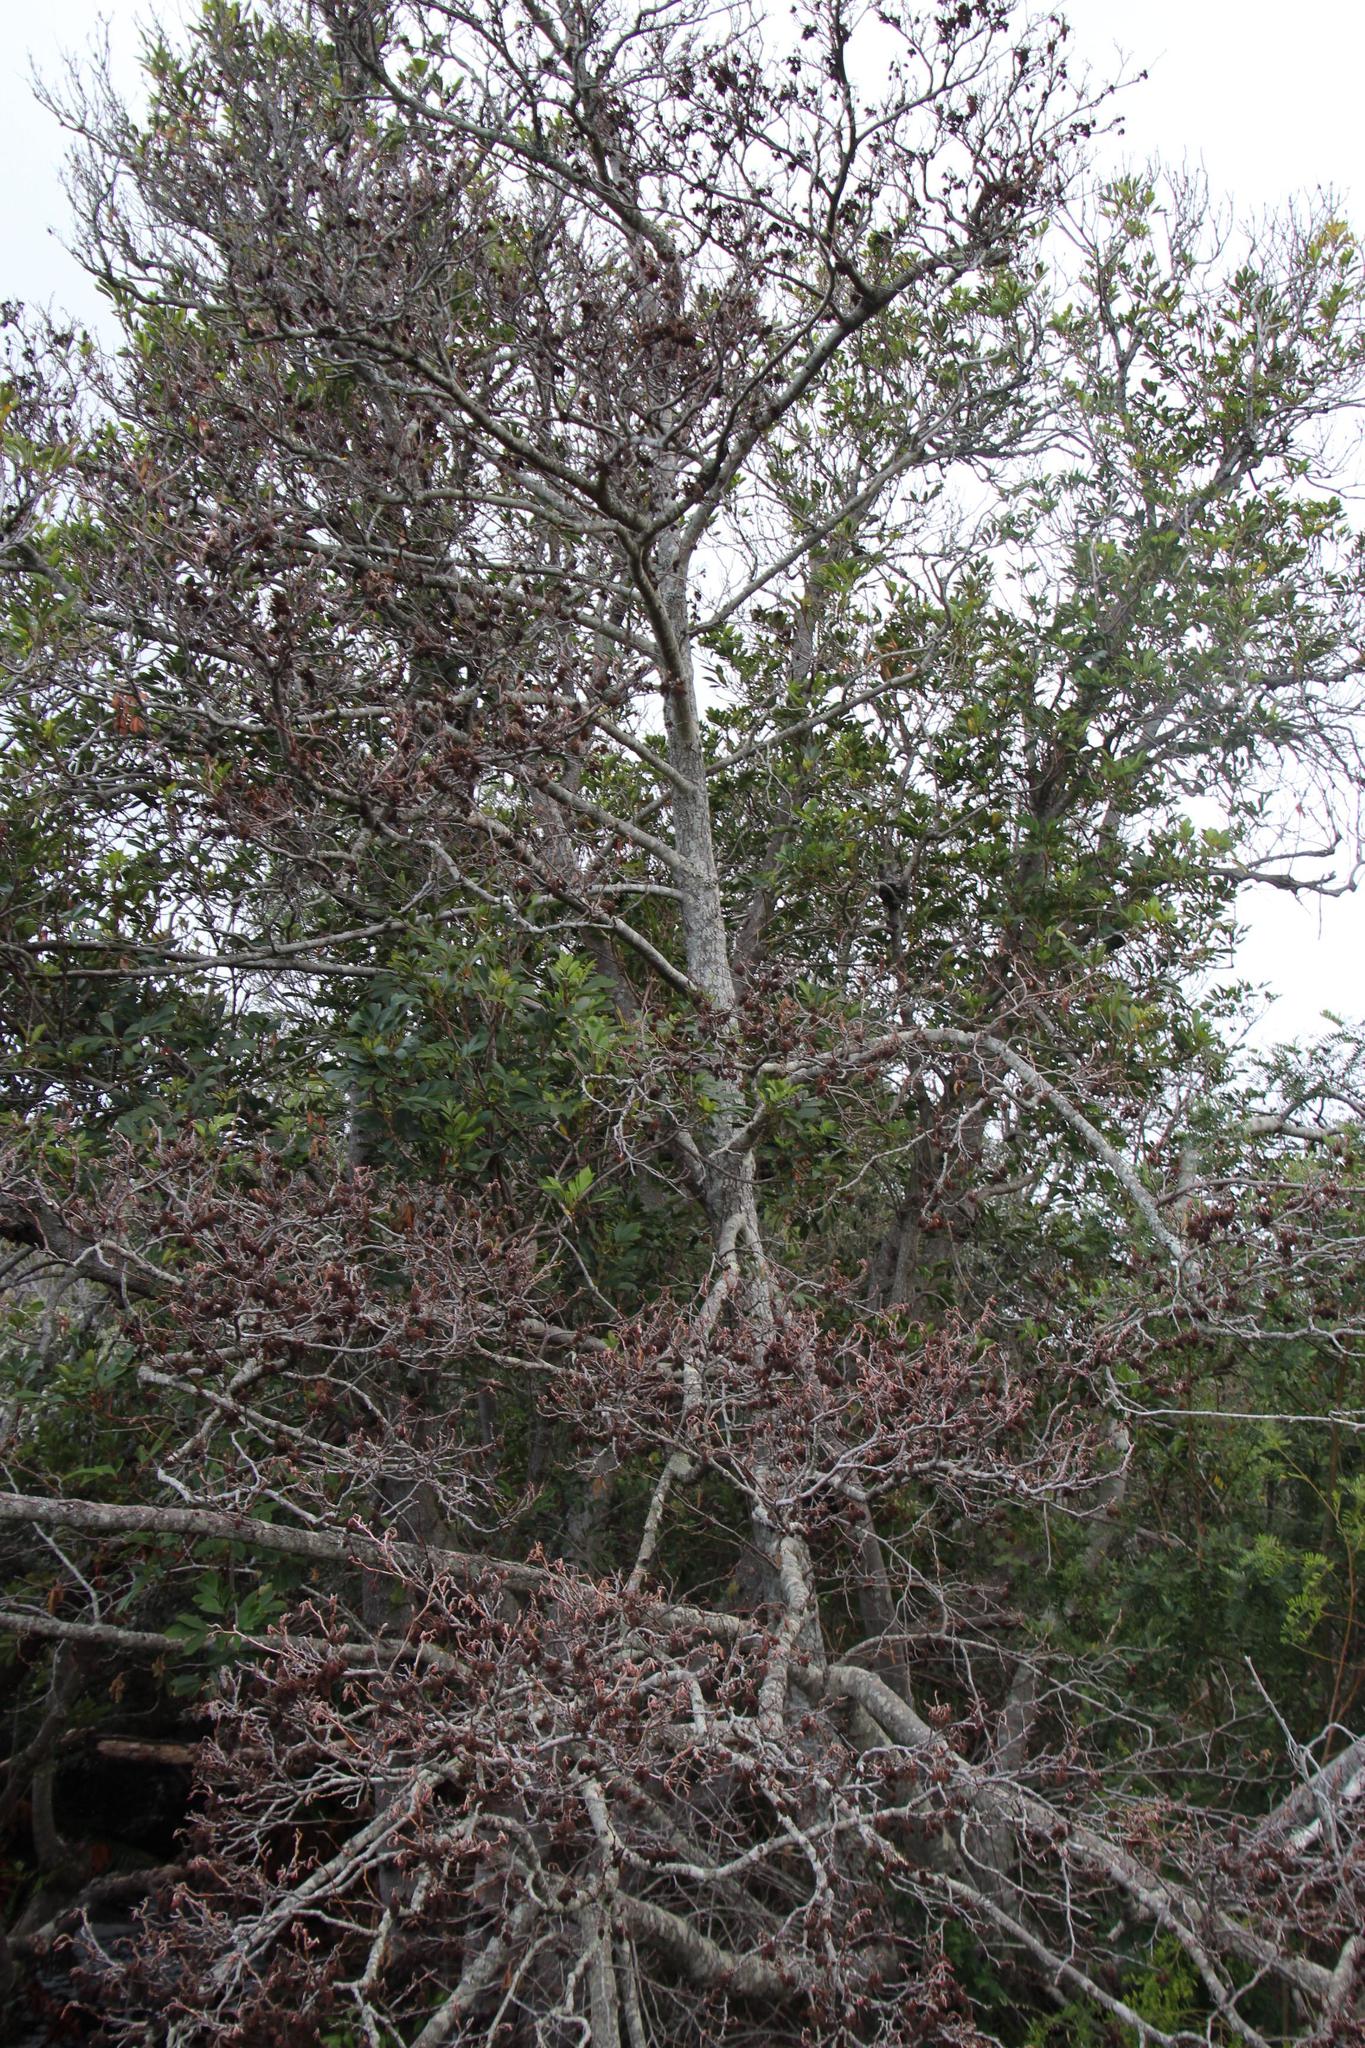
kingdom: Plantae
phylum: Tracheophyta
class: Magnoliopsida
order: Fagales
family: Betulaceae
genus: Alnus
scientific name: Alnus glutinosa
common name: Black alder
